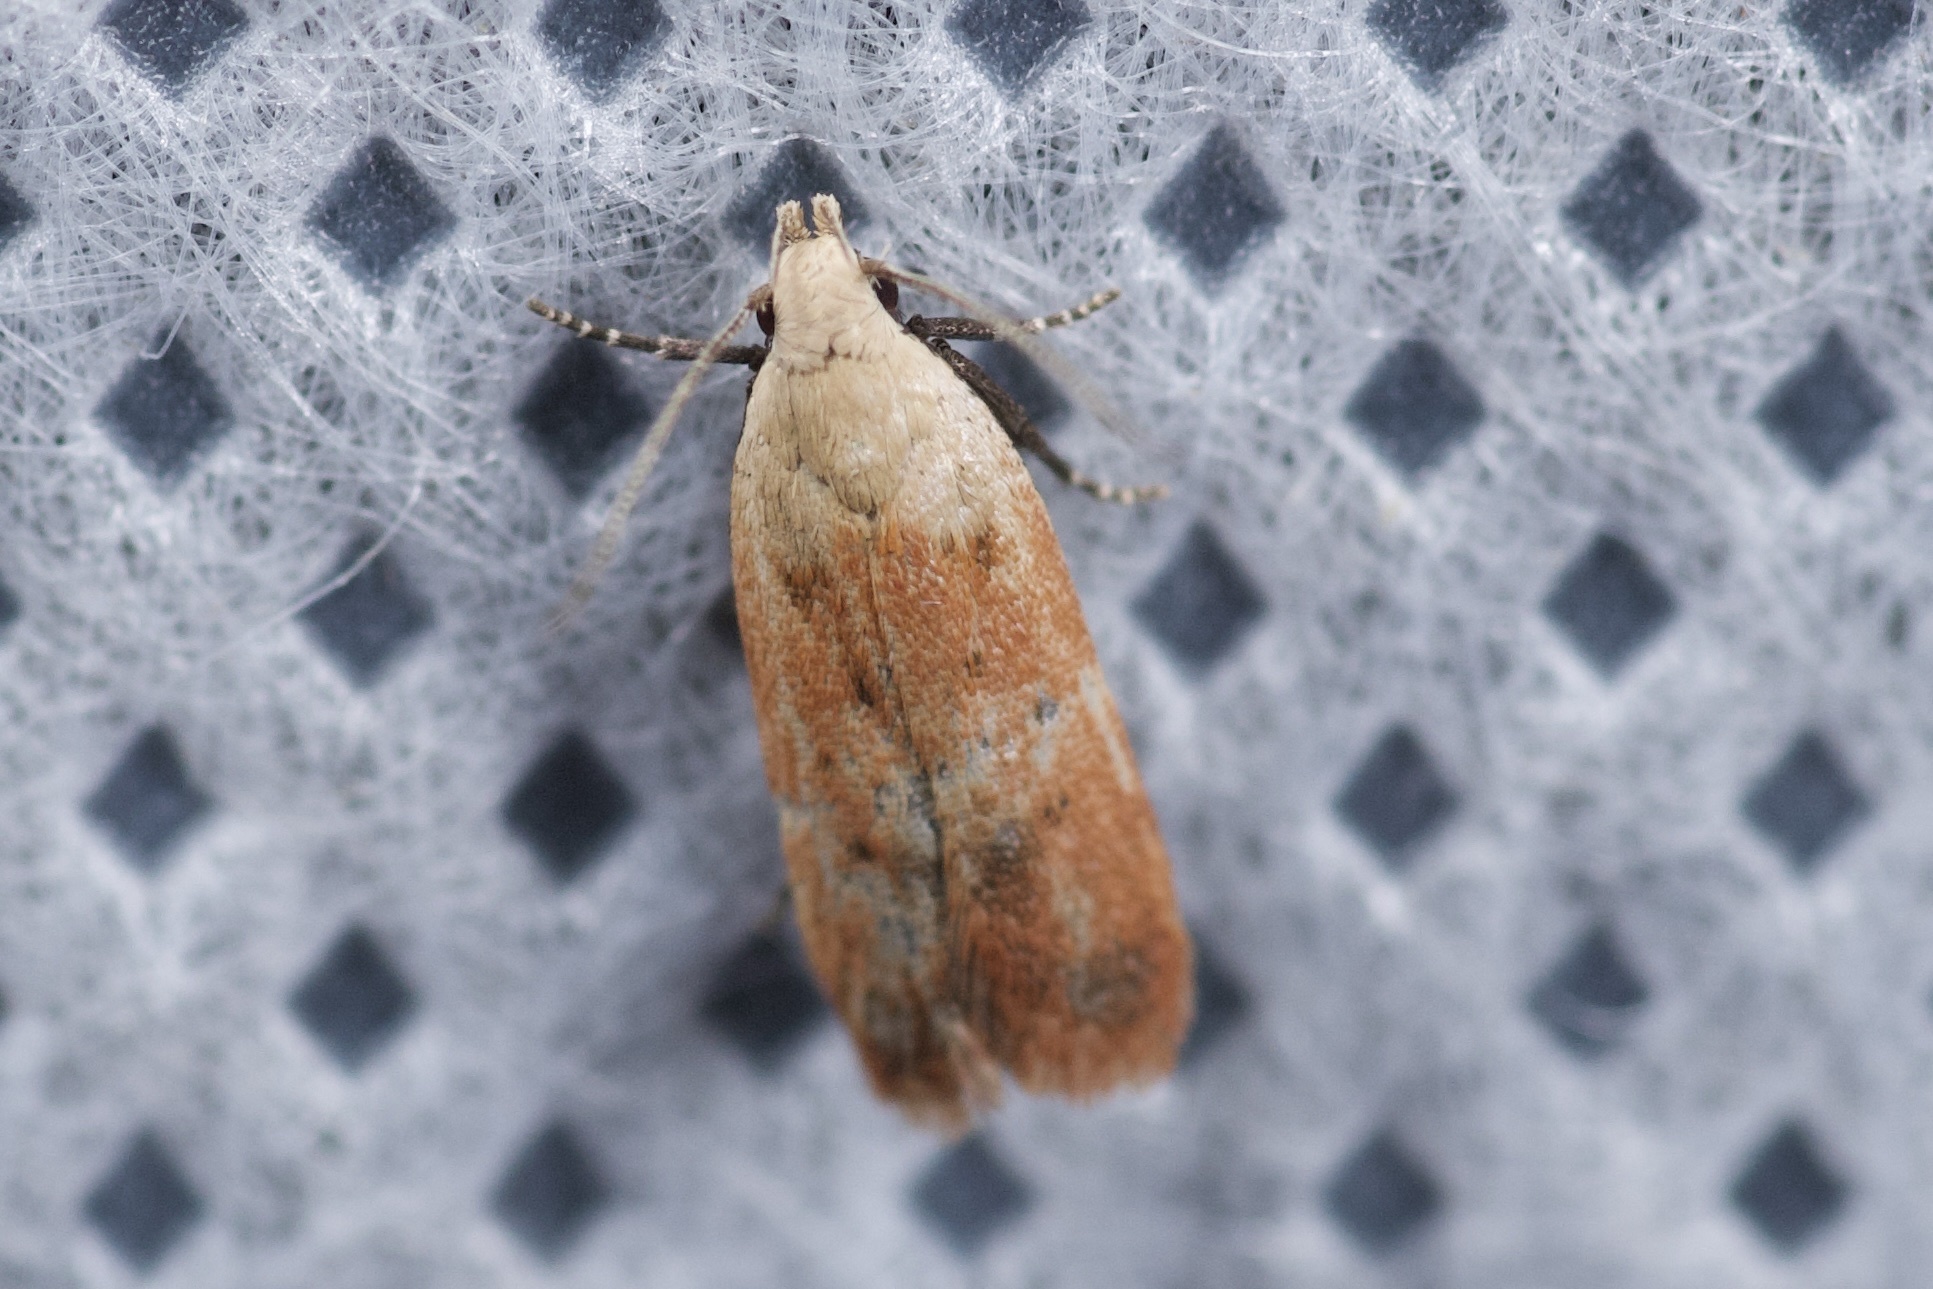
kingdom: Animalia
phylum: Arthropoda
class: Insecta
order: Lepidoptera
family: Gelechiidae
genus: Anacampsis
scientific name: Anacampsis fullonella
